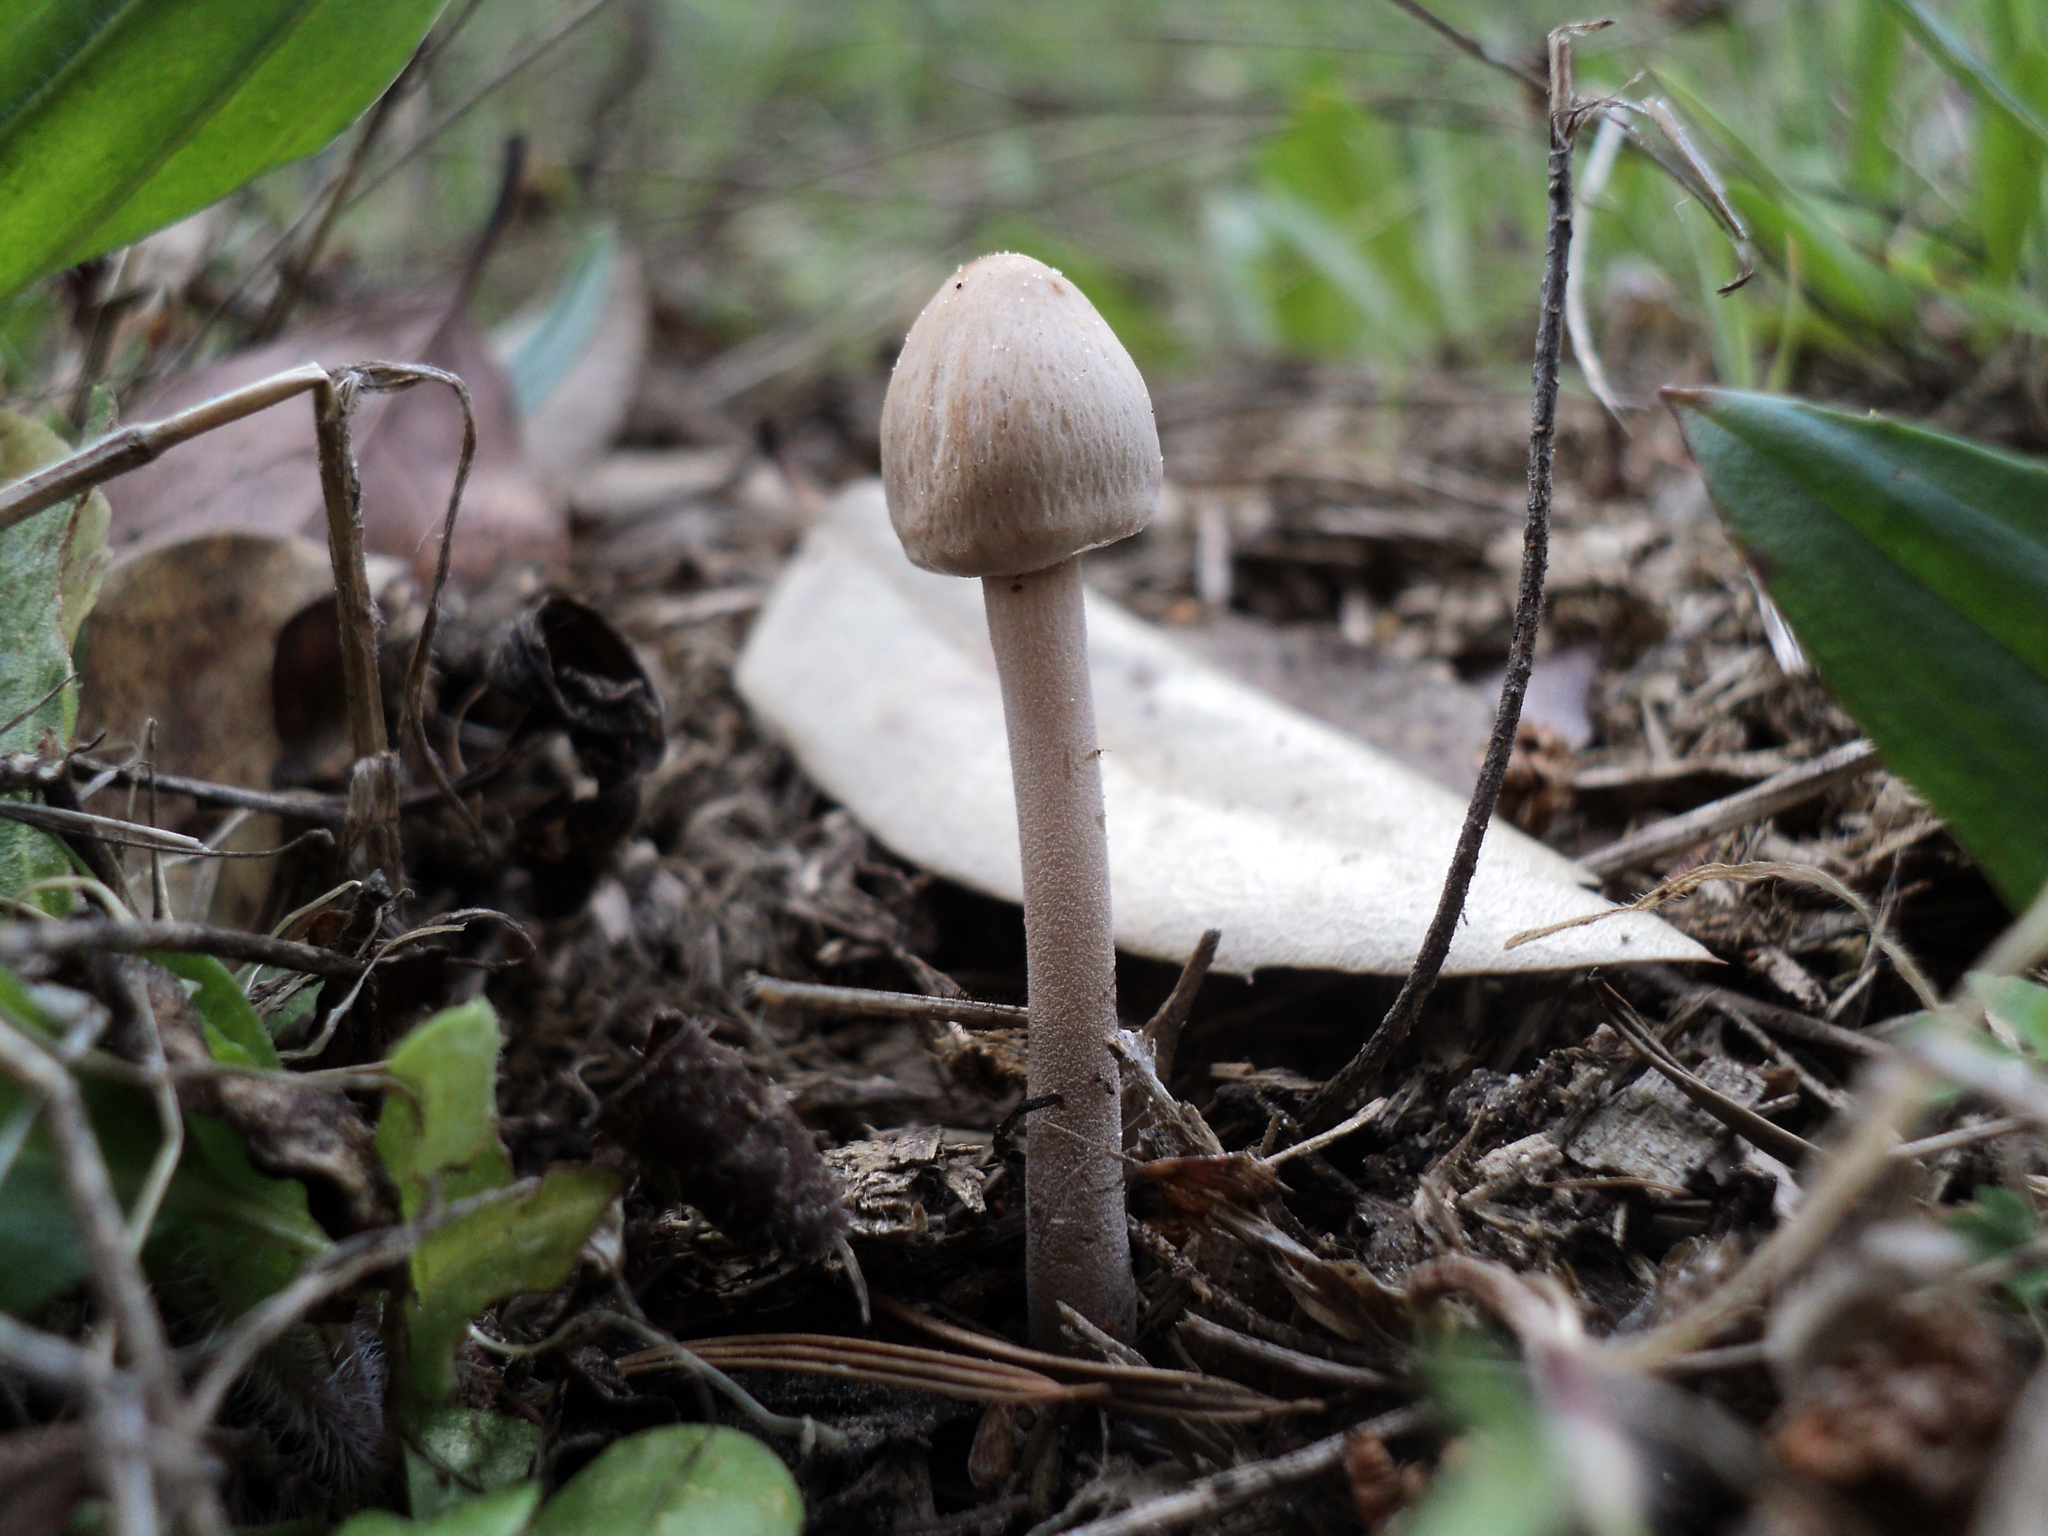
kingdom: Fungi
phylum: Basidiomycota
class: Agaricomycetes
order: Agaricales
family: Bolbitiaceae
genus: Panaeolus
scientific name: Panaeolus papilionaceus
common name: Petticoat mottlegill
